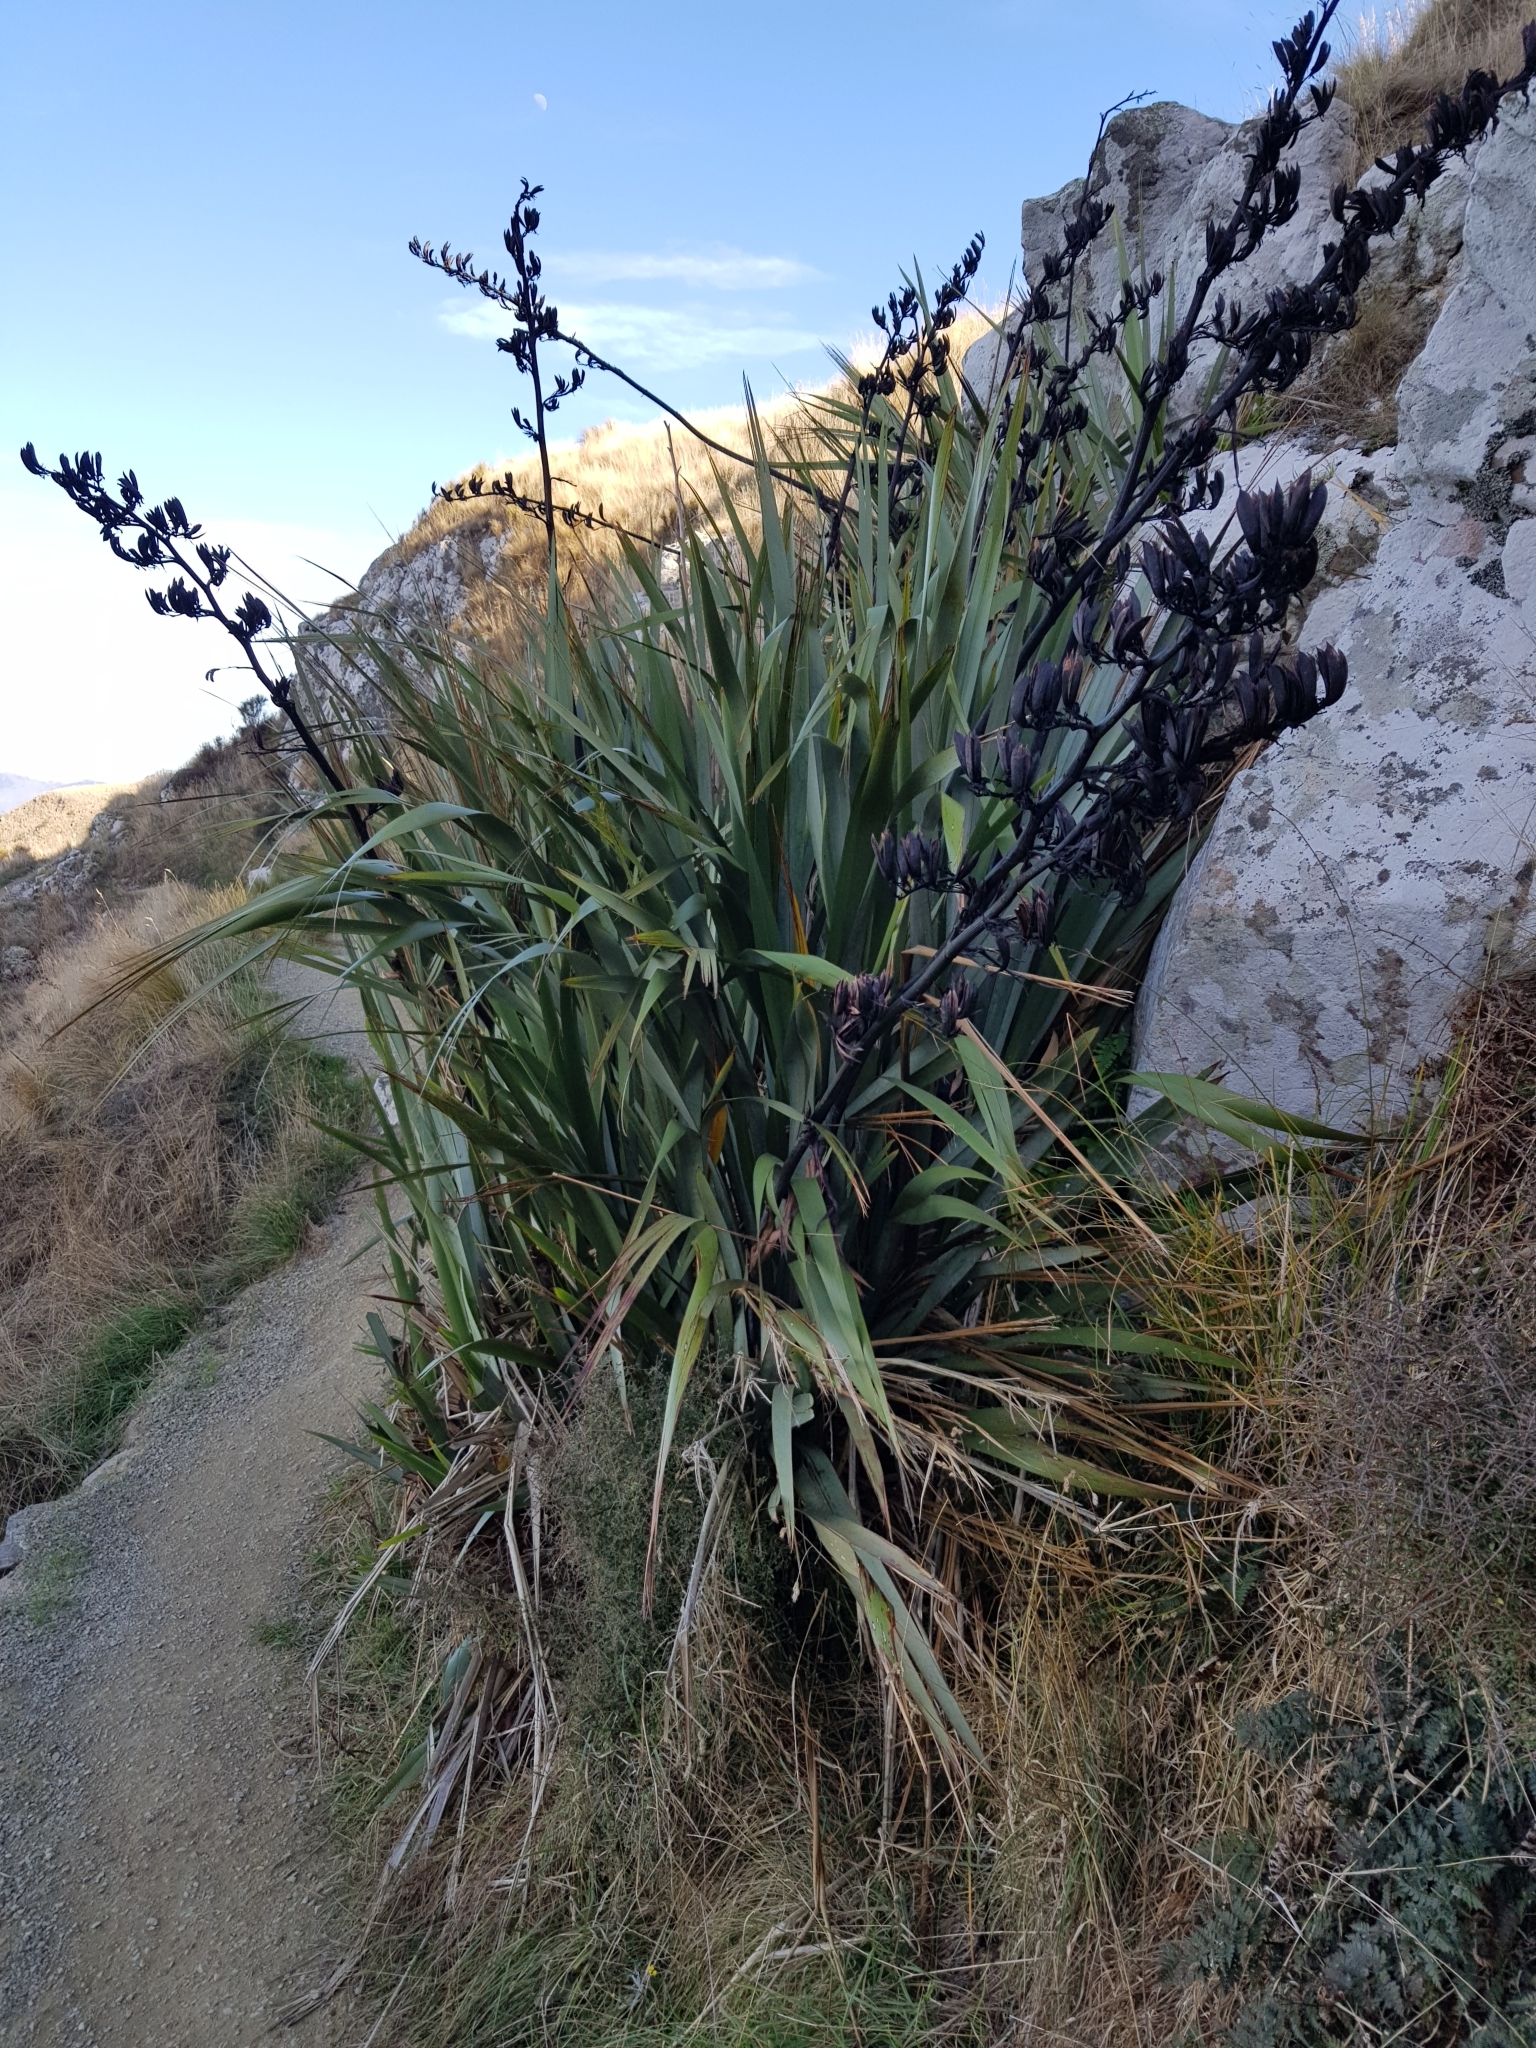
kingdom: Plantae
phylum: Tracheophyta
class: Liliopsida
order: Asparagales
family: Asphodelaceae
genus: Phormium
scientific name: Phormium tenax
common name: New zealand flax
